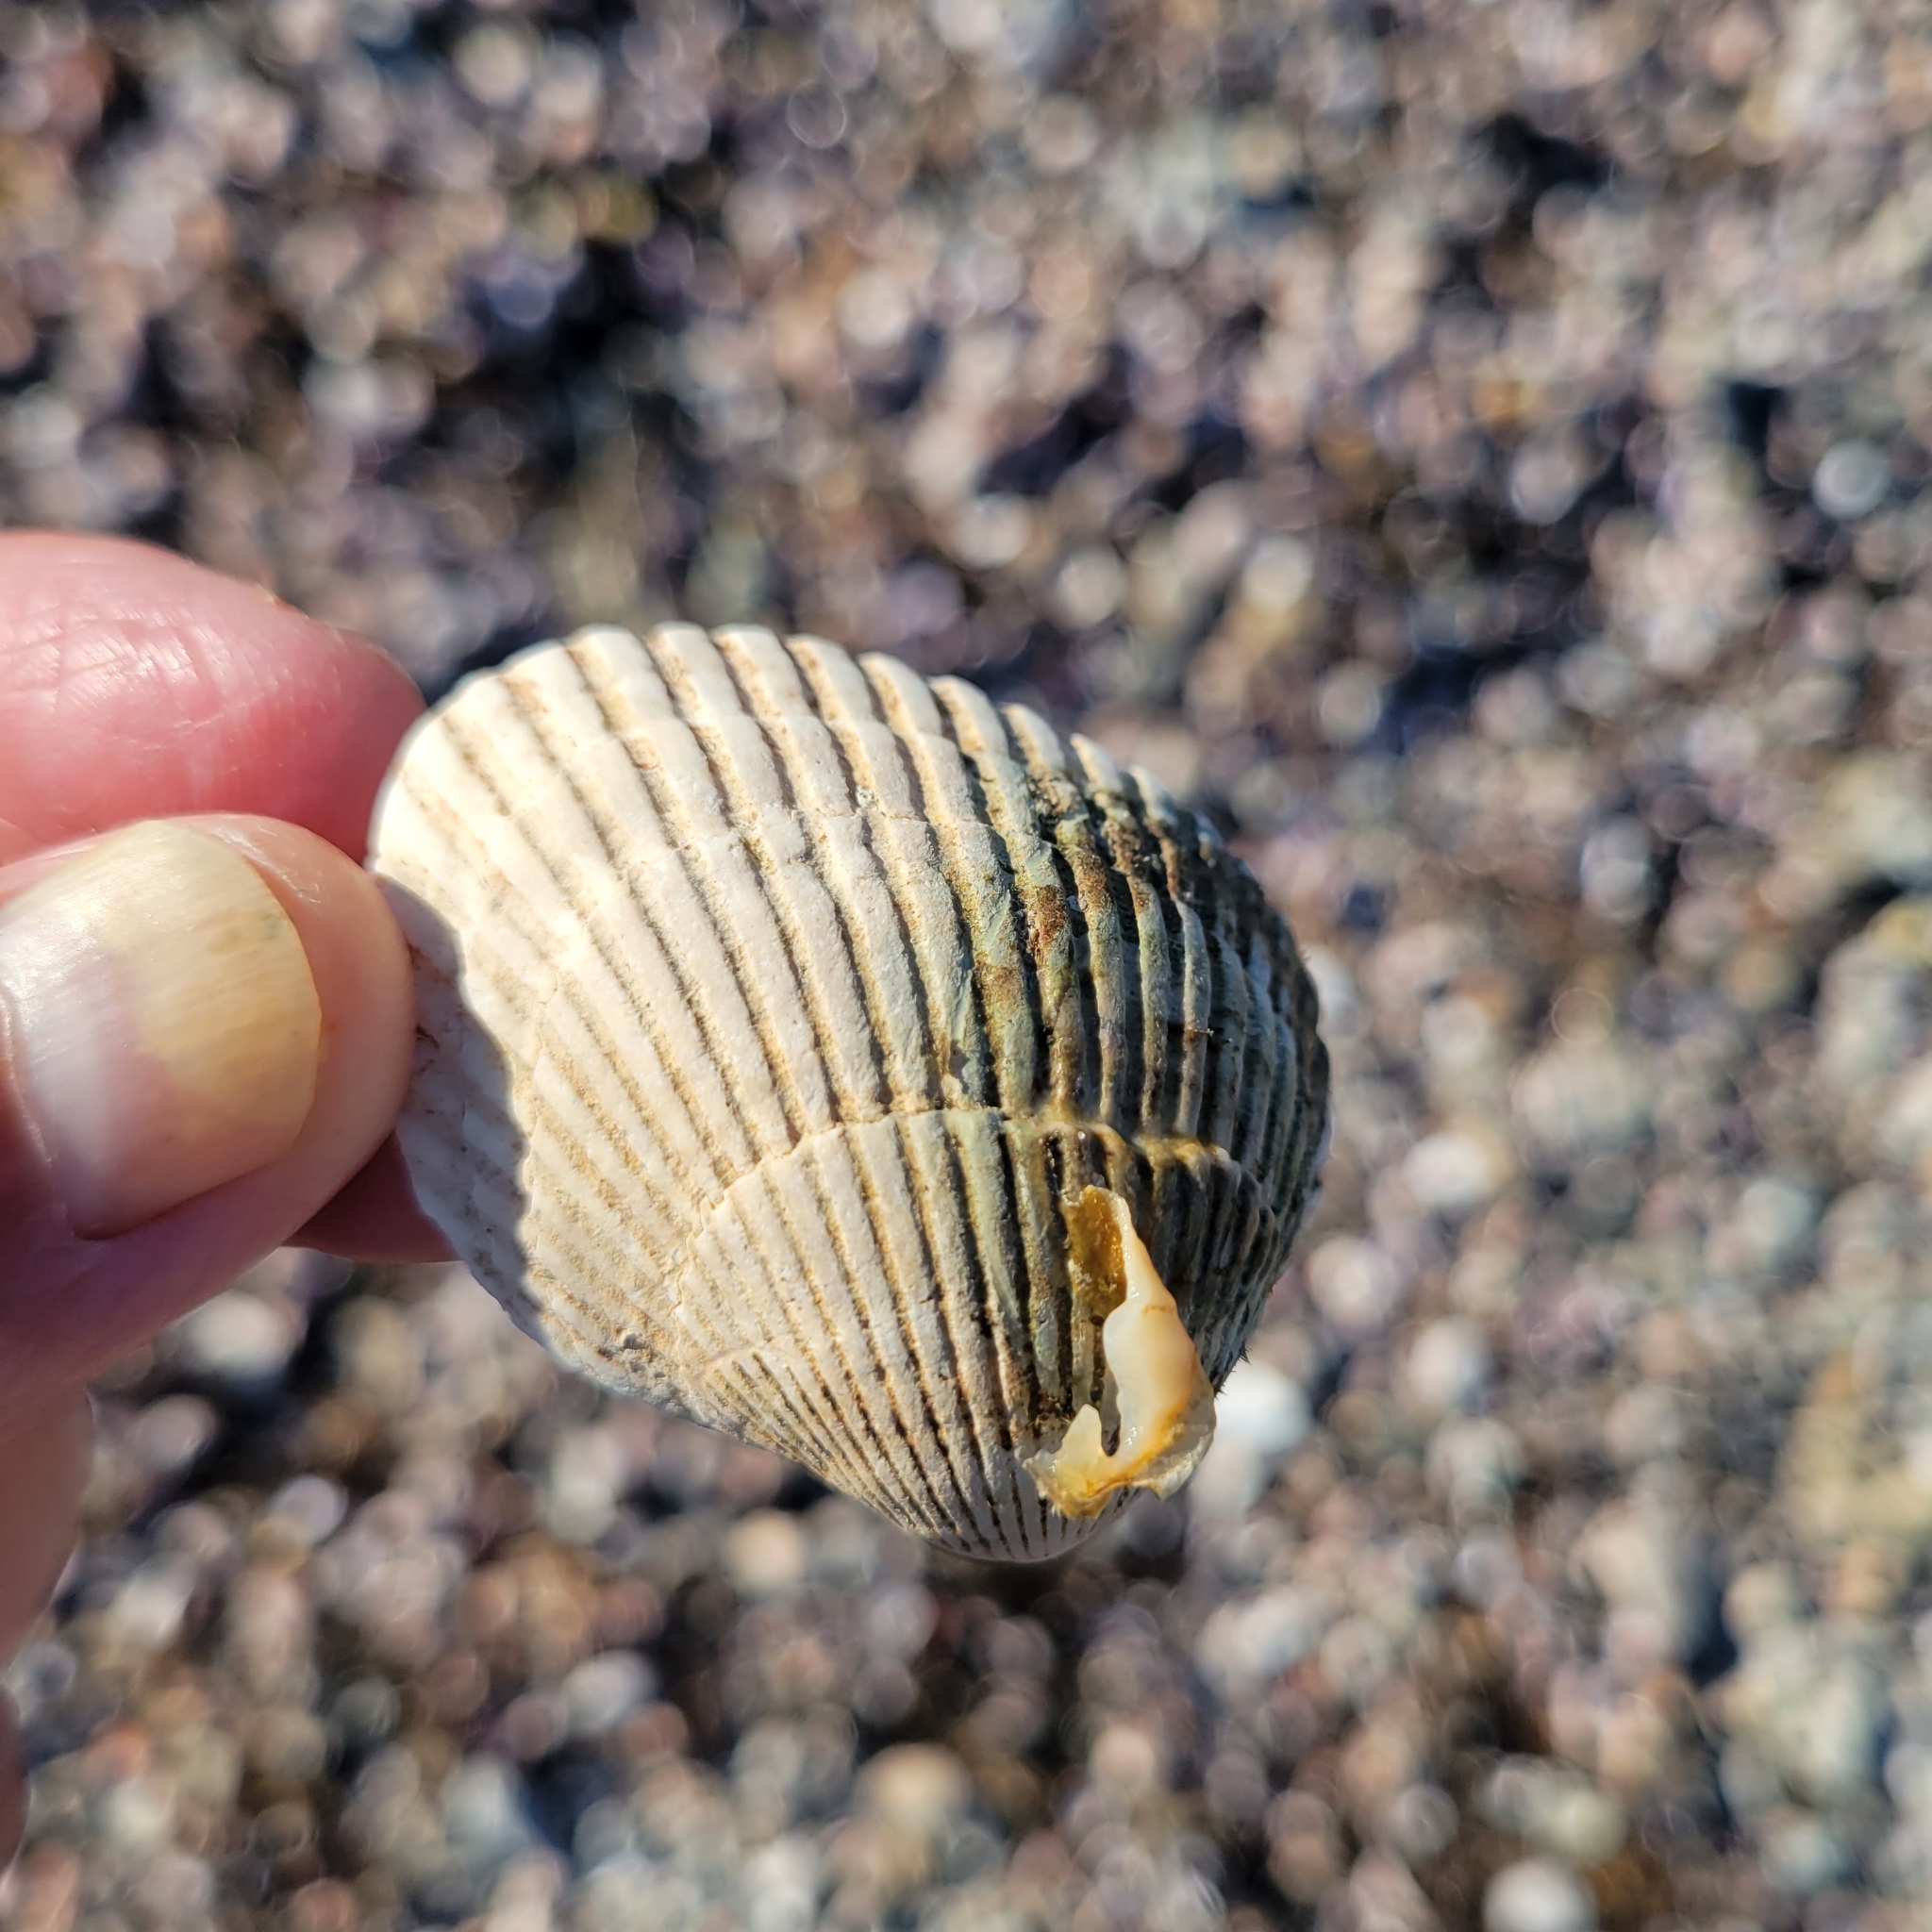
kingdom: Animalia
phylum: Mollusca
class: Bivalvia
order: Arcida
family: Arcidae
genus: Lunarca
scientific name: Lunarca ovalis
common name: Blood ark
